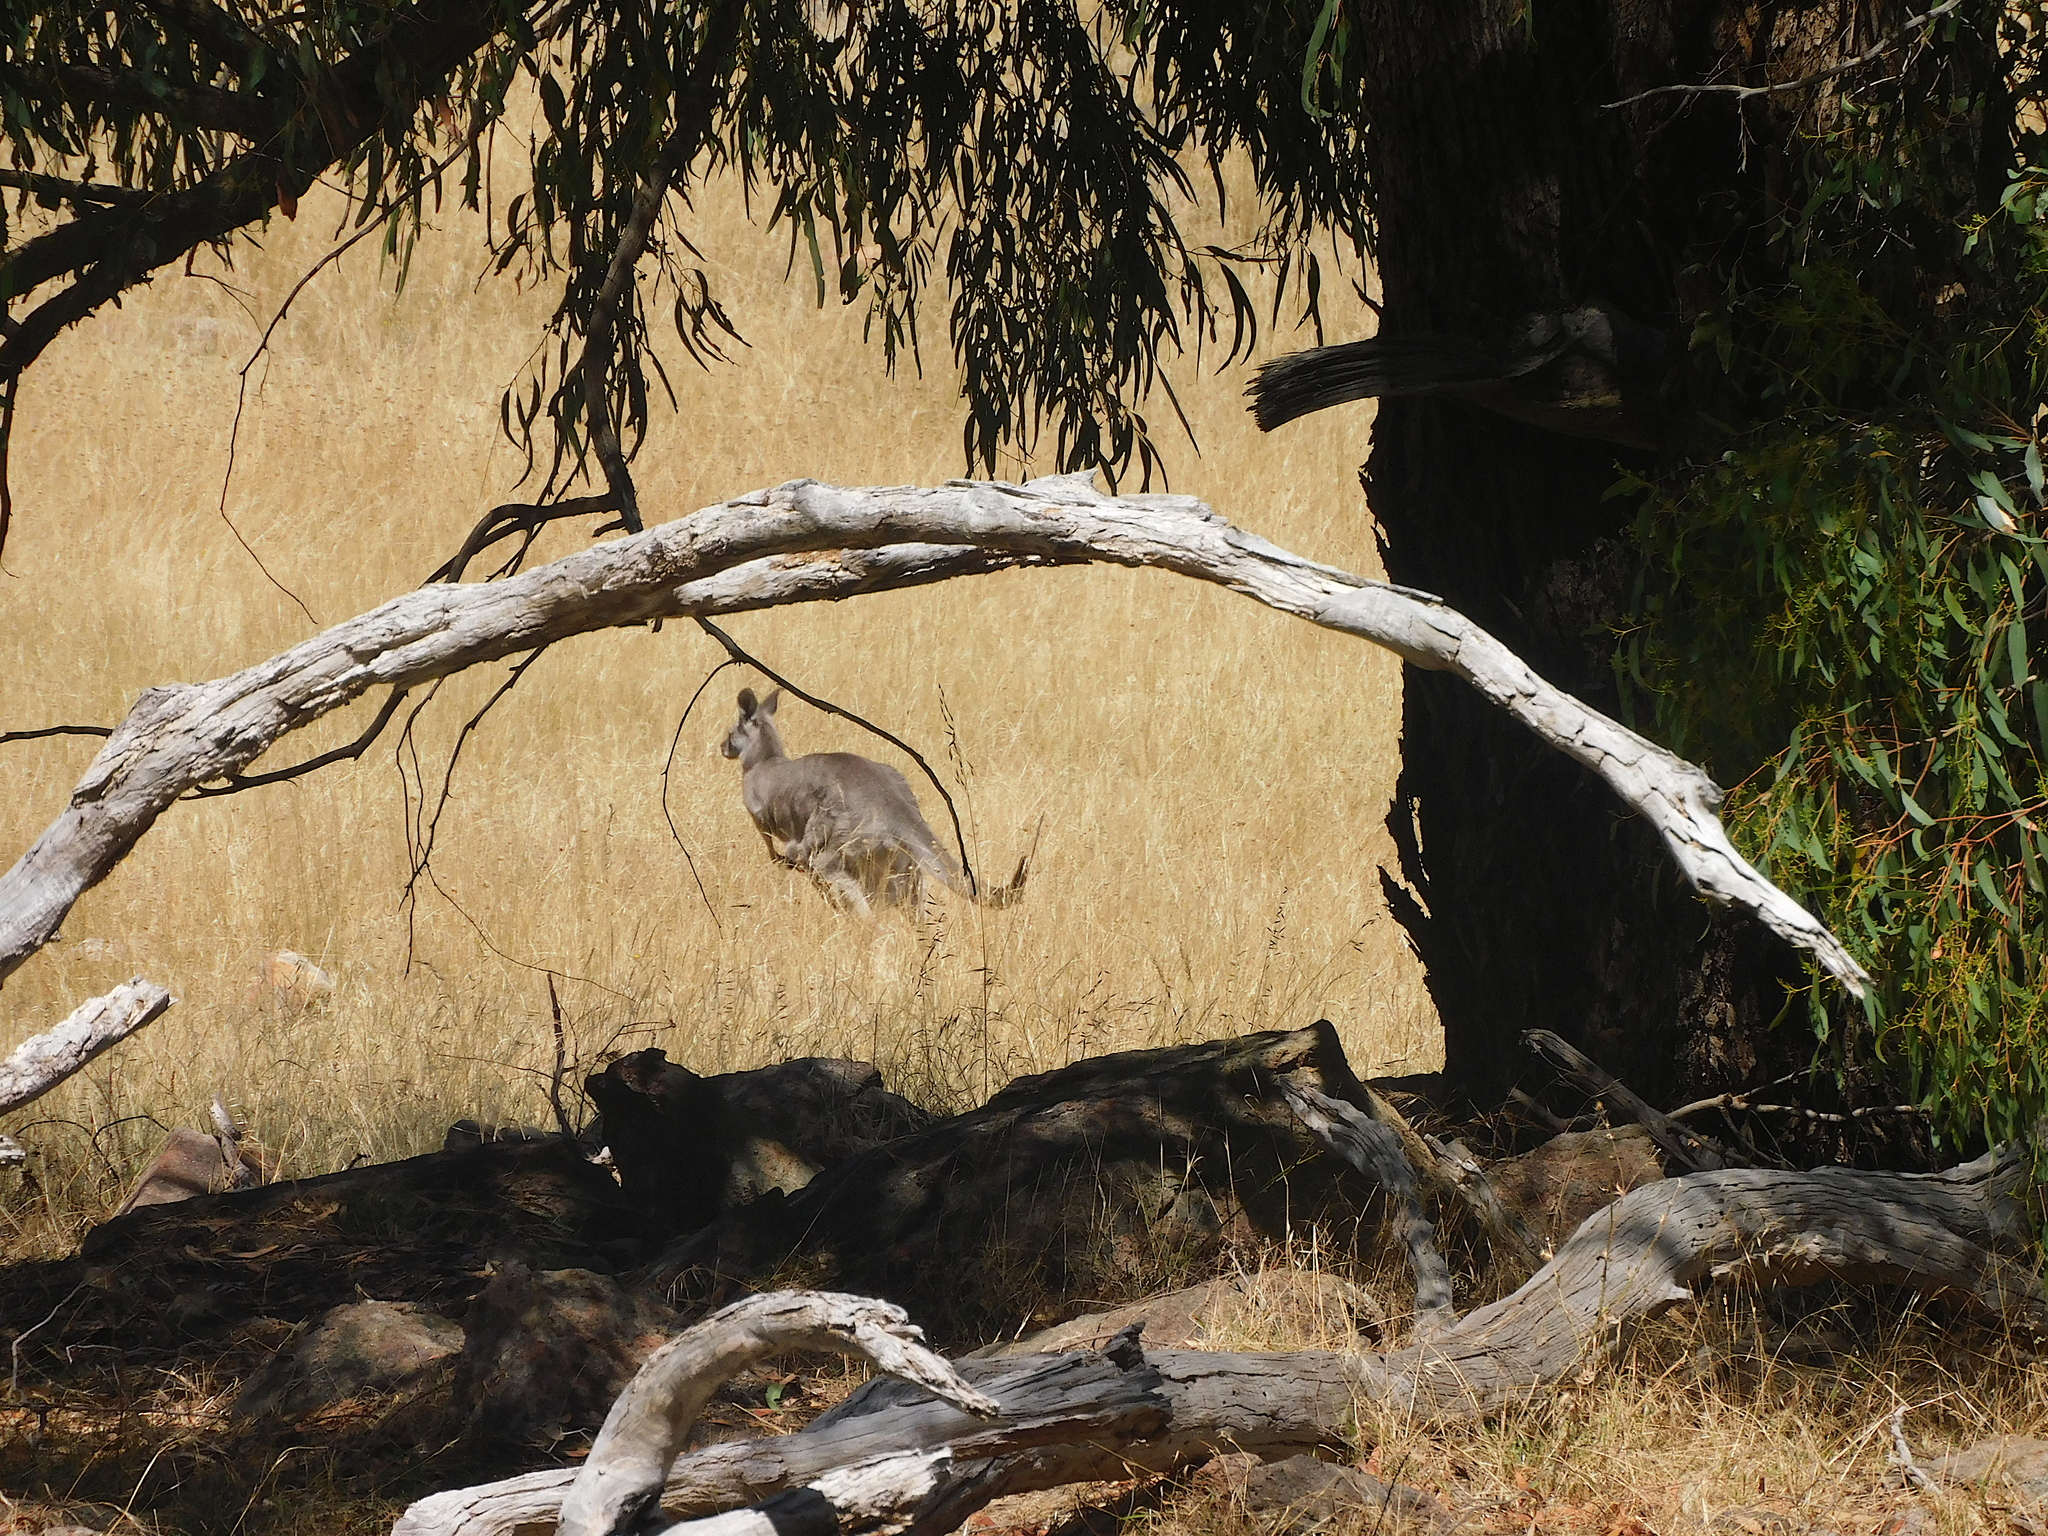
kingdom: Animalia
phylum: Chordata
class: Mammalia
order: Diprotodontia
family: Macropodidae
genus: Macropus
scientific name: Macropus giganteus
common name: Eastern grey kangaroo
